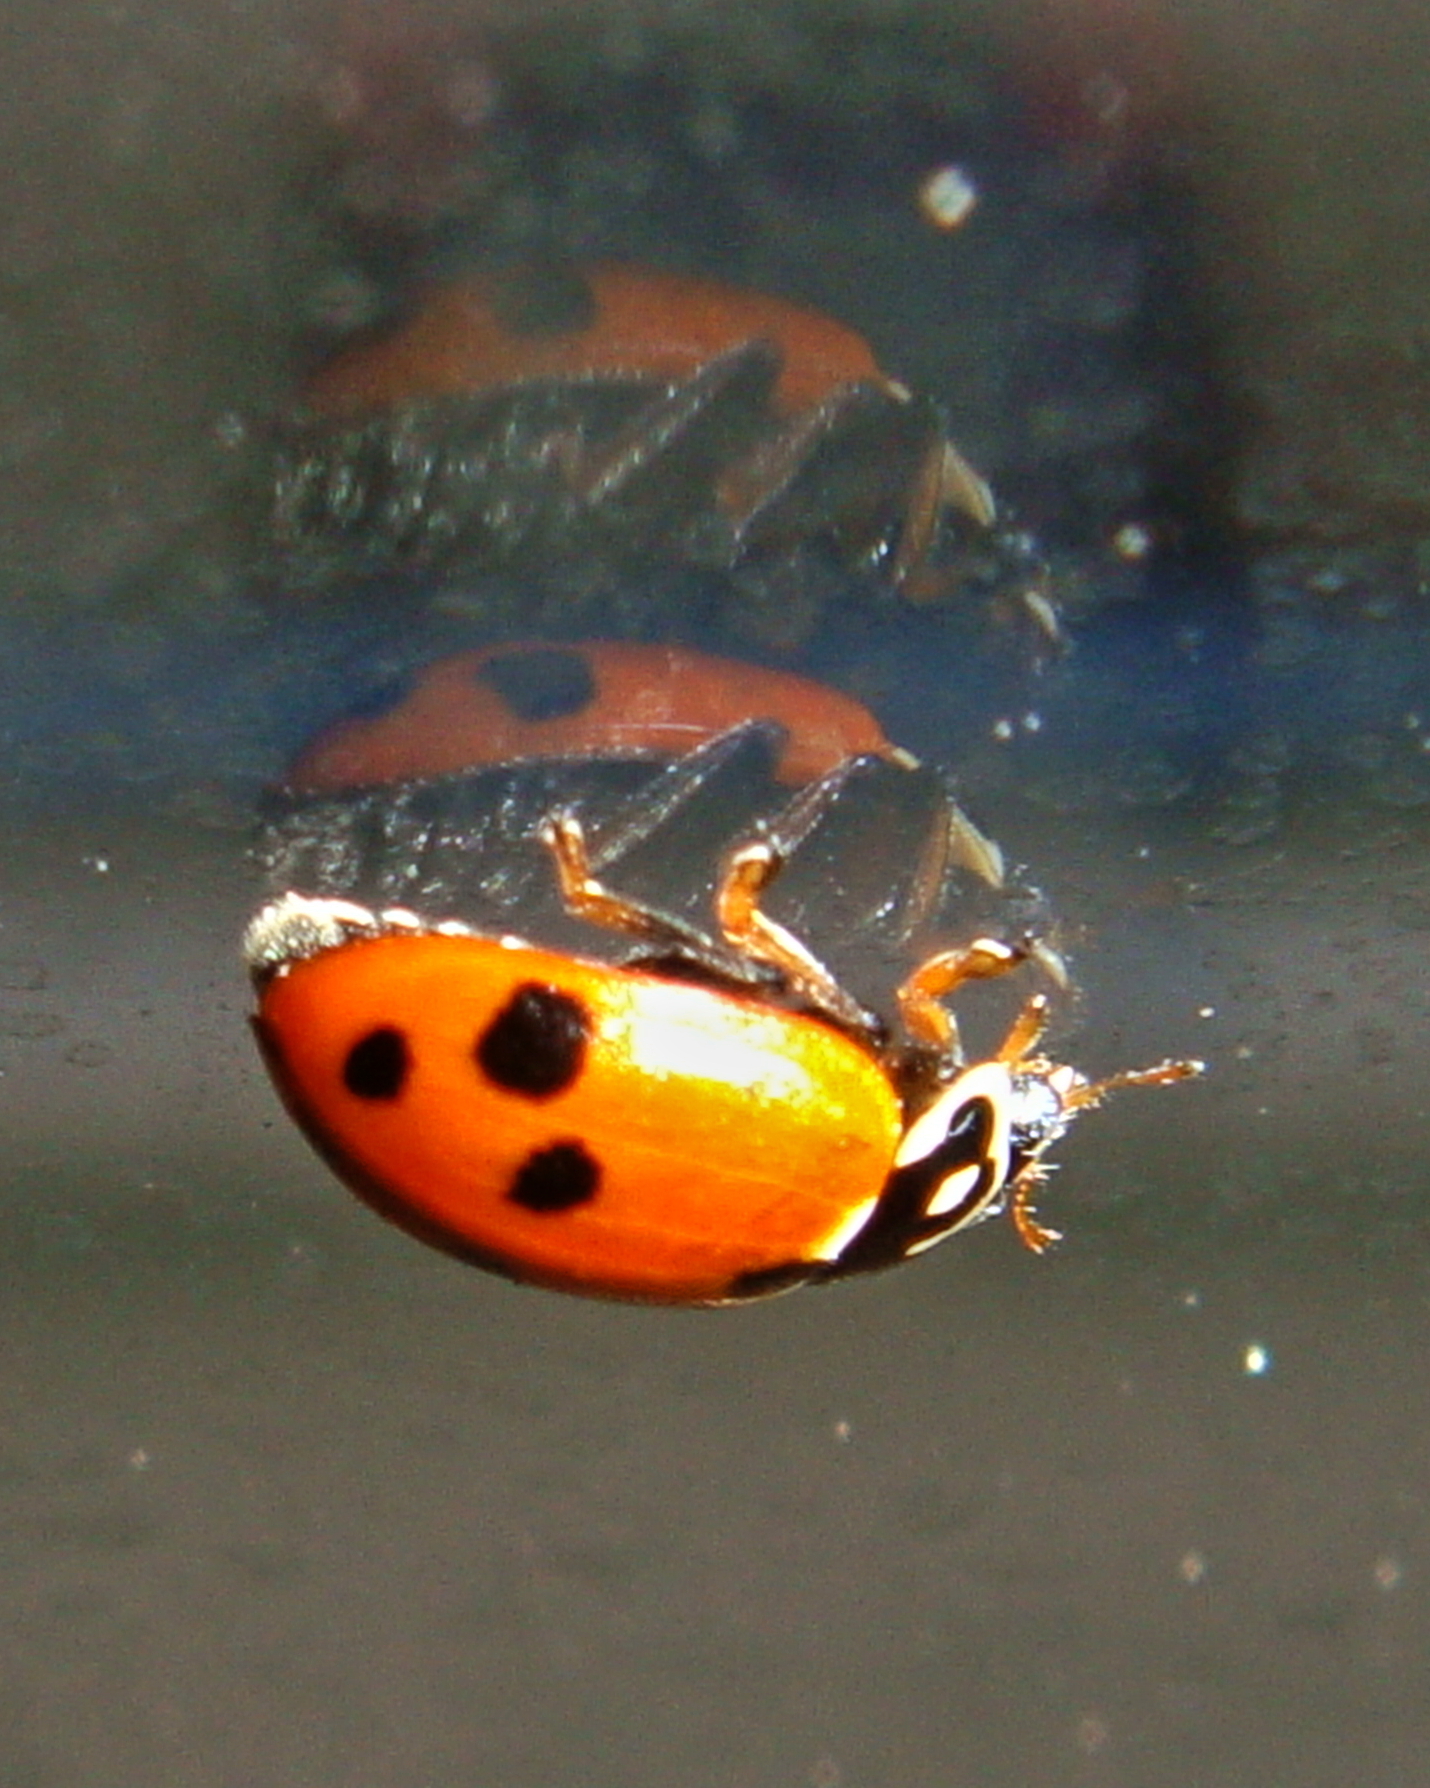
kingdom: Animalia
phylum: Arthropoda
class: Insecta
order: Coleoptera
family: Coccinellidae
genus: Hippodamia
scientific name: Hippodamia variegata
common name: Ladybird beetle
